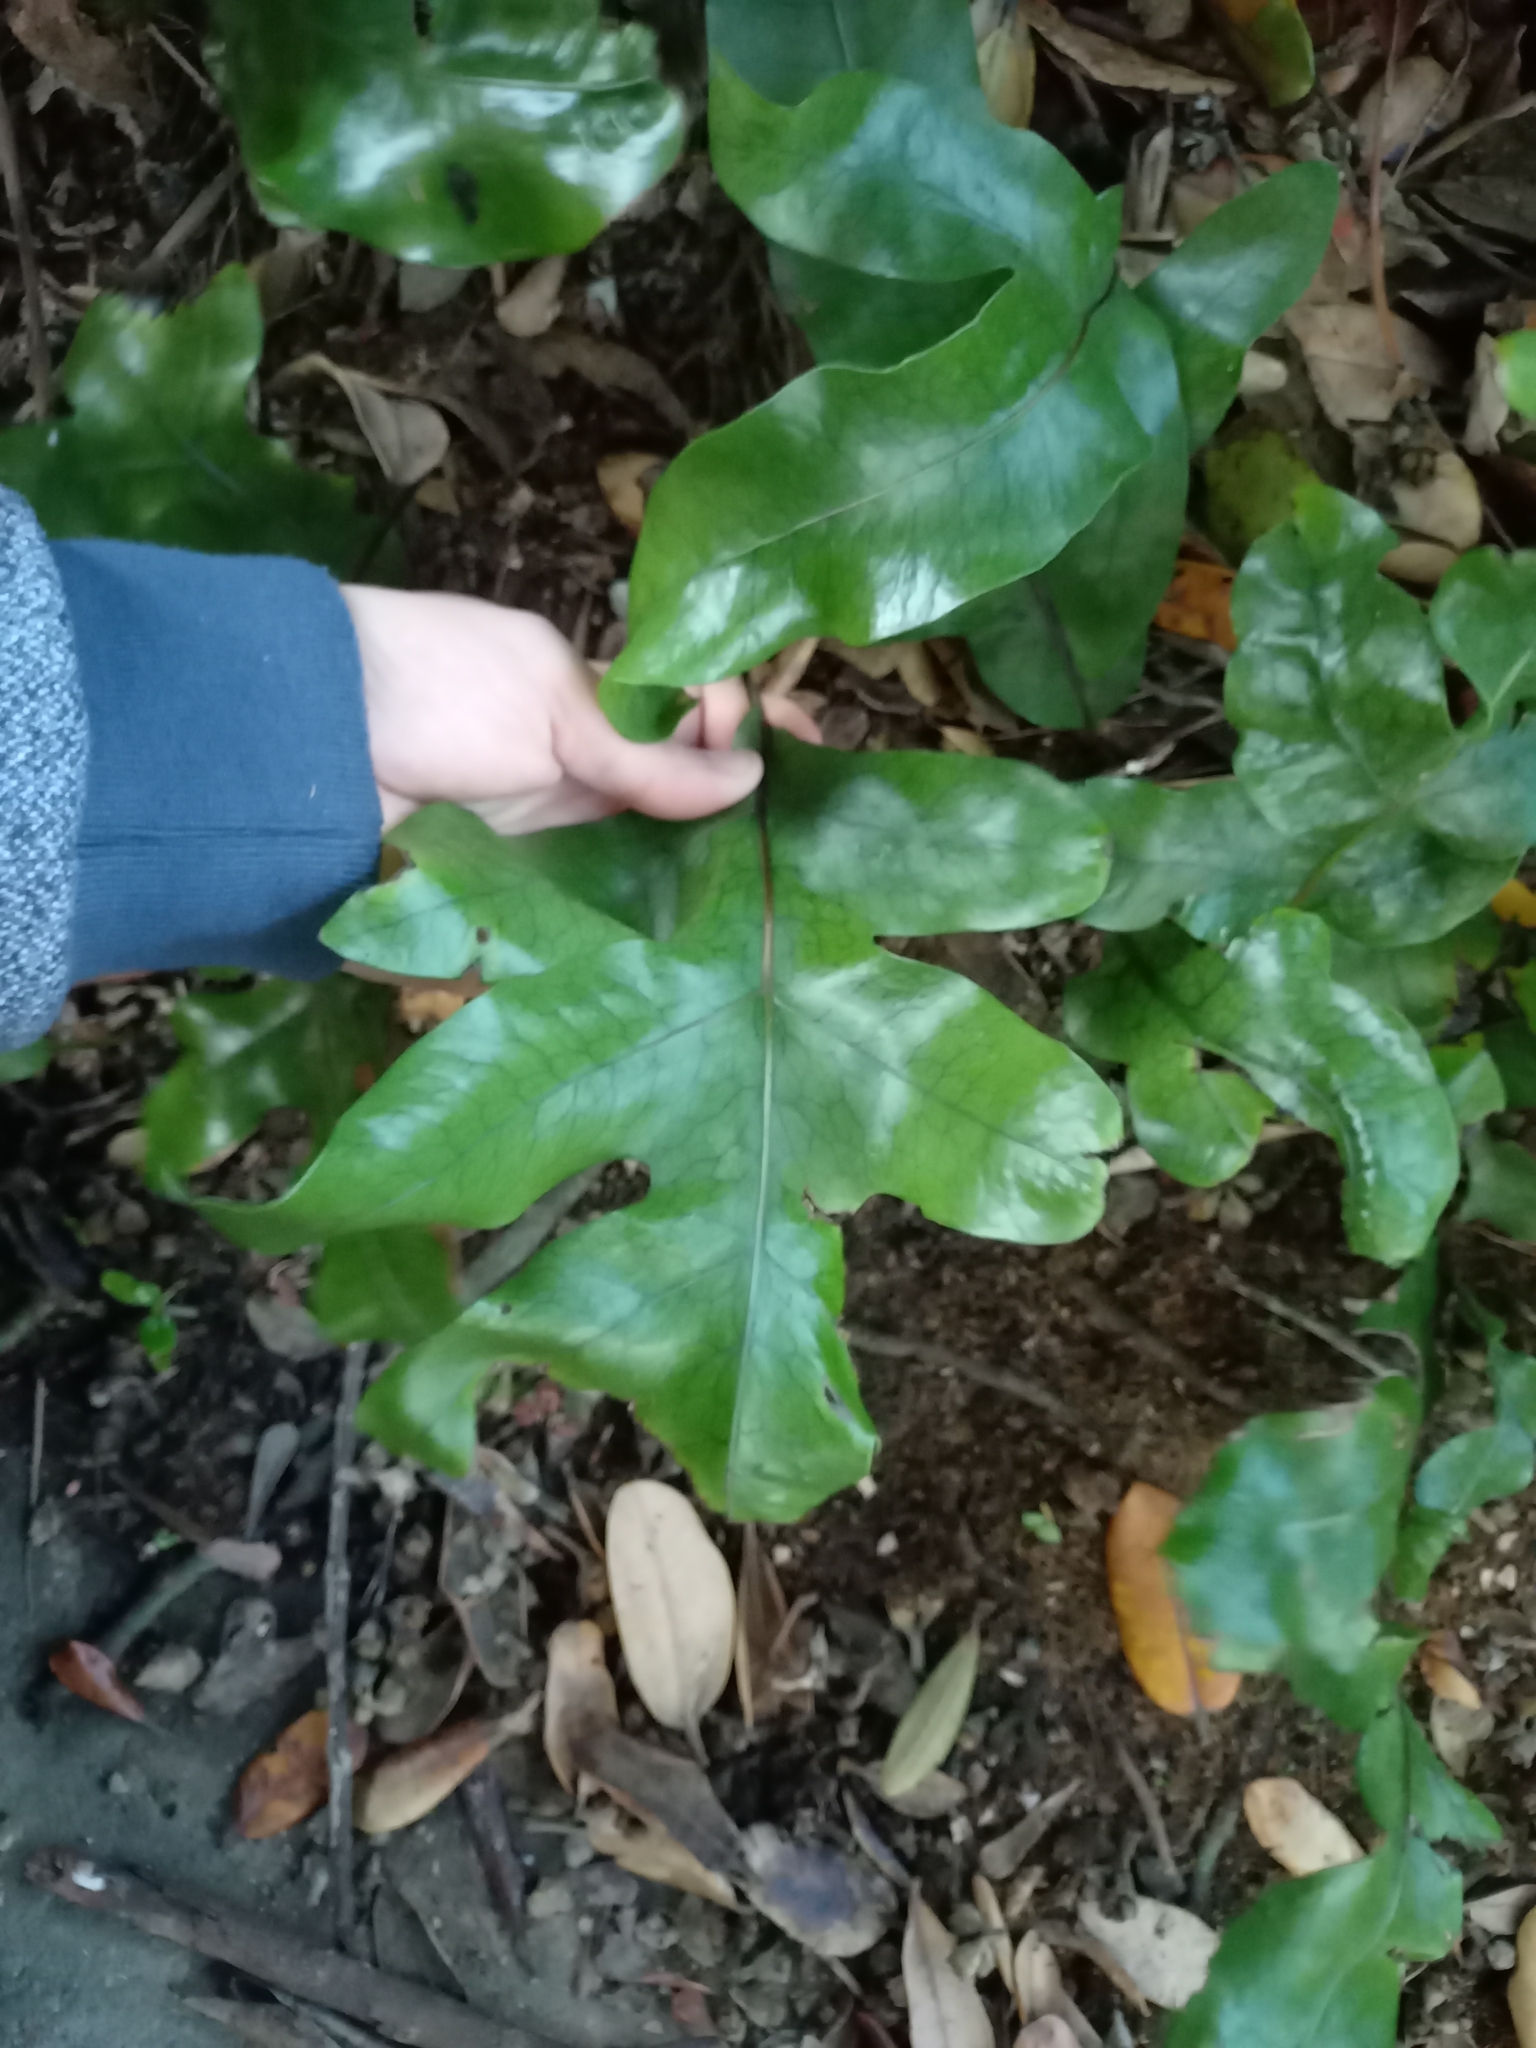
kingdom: Plantae
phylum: Tracheophyta
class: Polypodiopsida
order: Polypodiales
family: Polypodiaceae
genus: Lecanopteris
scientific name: Lecanopteris pustulata
